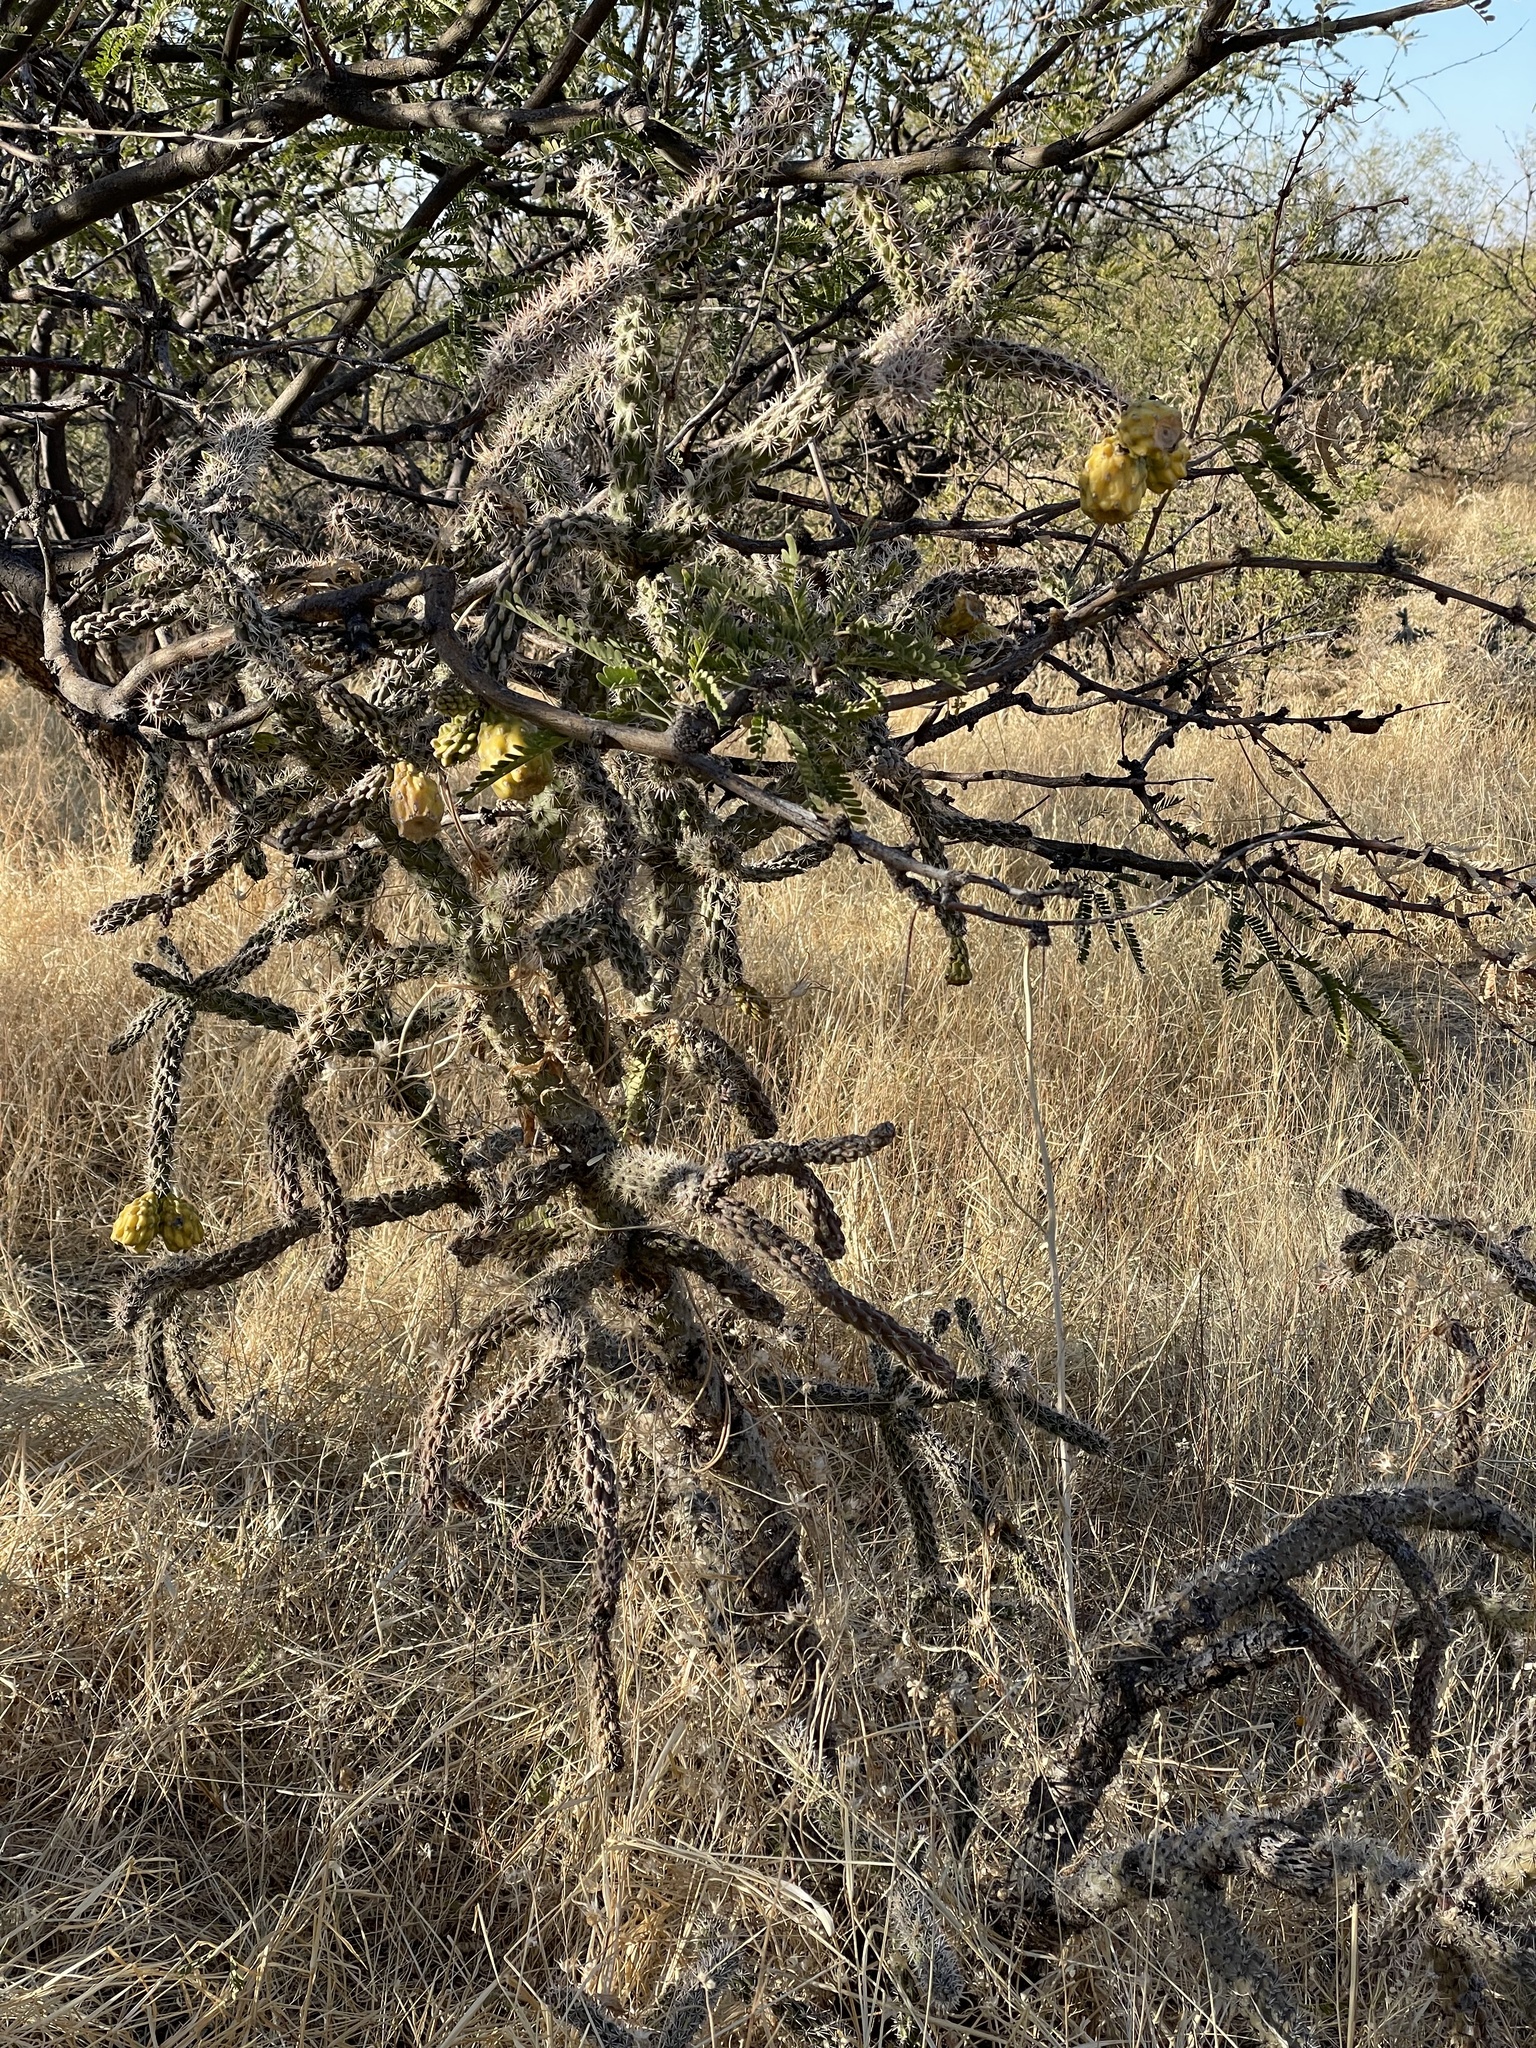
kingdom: Plantae
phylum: Tracheophyta
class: Magnoliopsida
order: Caryophyllales
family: Cactaceae
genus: Cylindropuntia
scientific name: Cylindropuntia imbricata
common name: Candelabrum cactus
